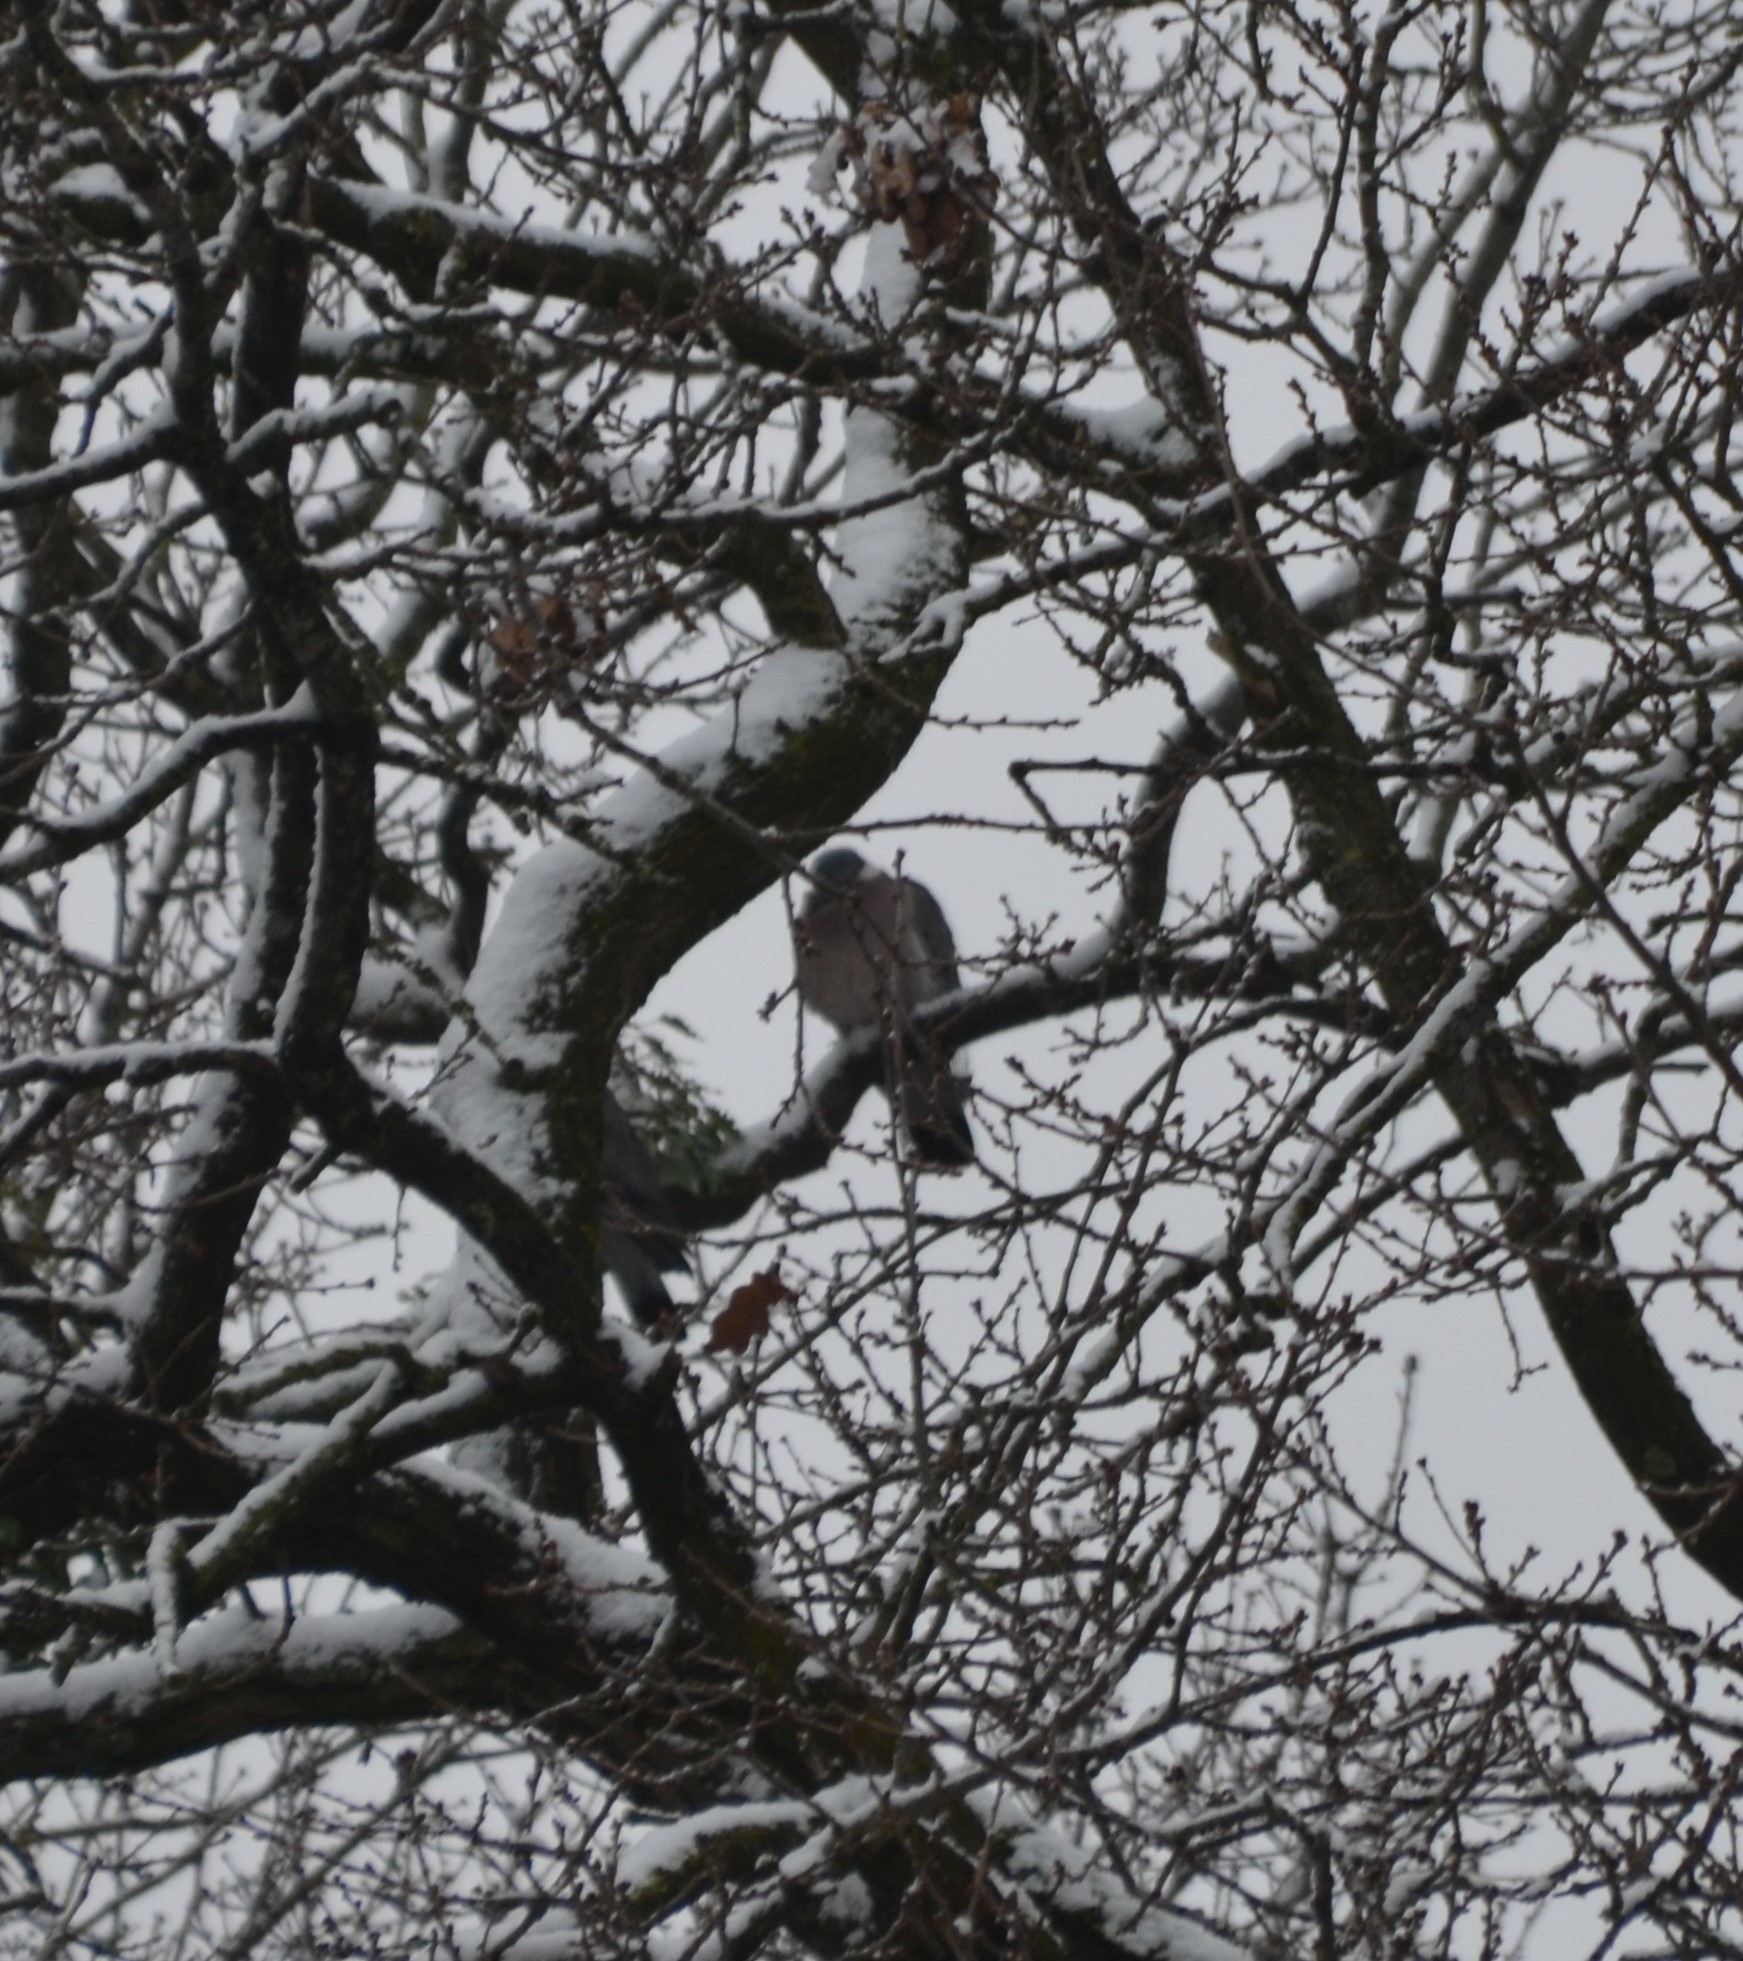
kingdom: Animalia
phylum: Chordata
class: Aves
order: Columbiformes
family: Columbidae
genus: Columba
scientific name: Columba palumbus
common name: Common wood pigeon
